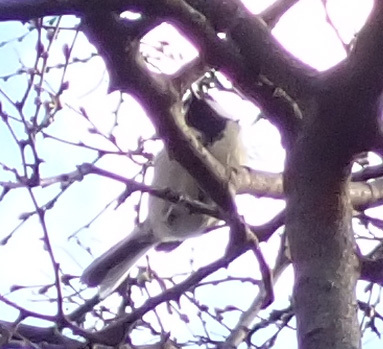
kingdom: Animalia
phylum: Chordata
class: Aves
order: Passeriformes
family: Paridae
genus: Parus
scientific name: Parus major
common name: Great tit
